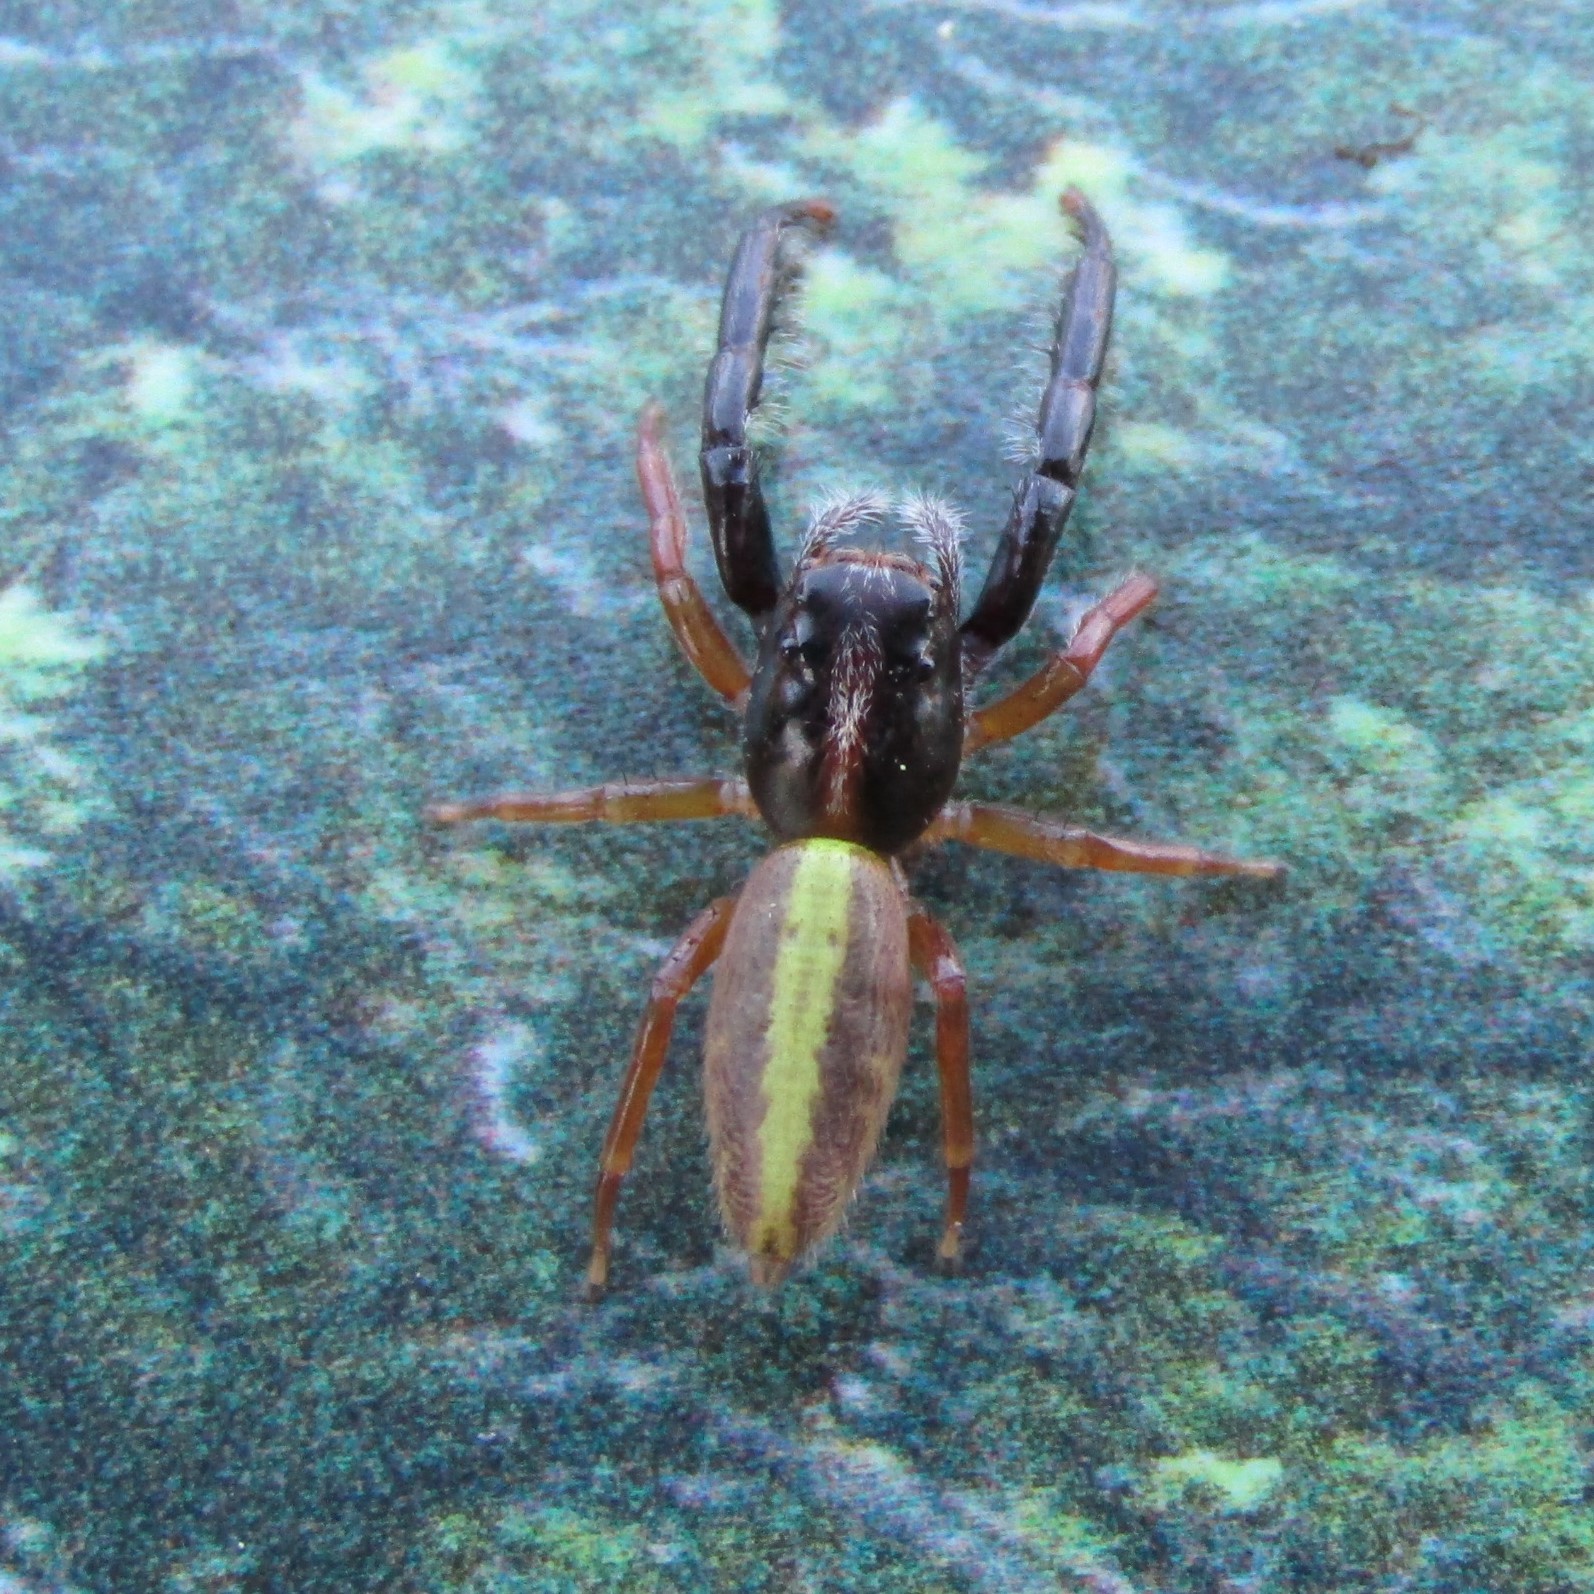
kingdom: Animalia
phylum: Arthropoda
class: Arachnida
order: Araneae
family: Salticidae
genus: Trite
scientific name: Trite planiceps
